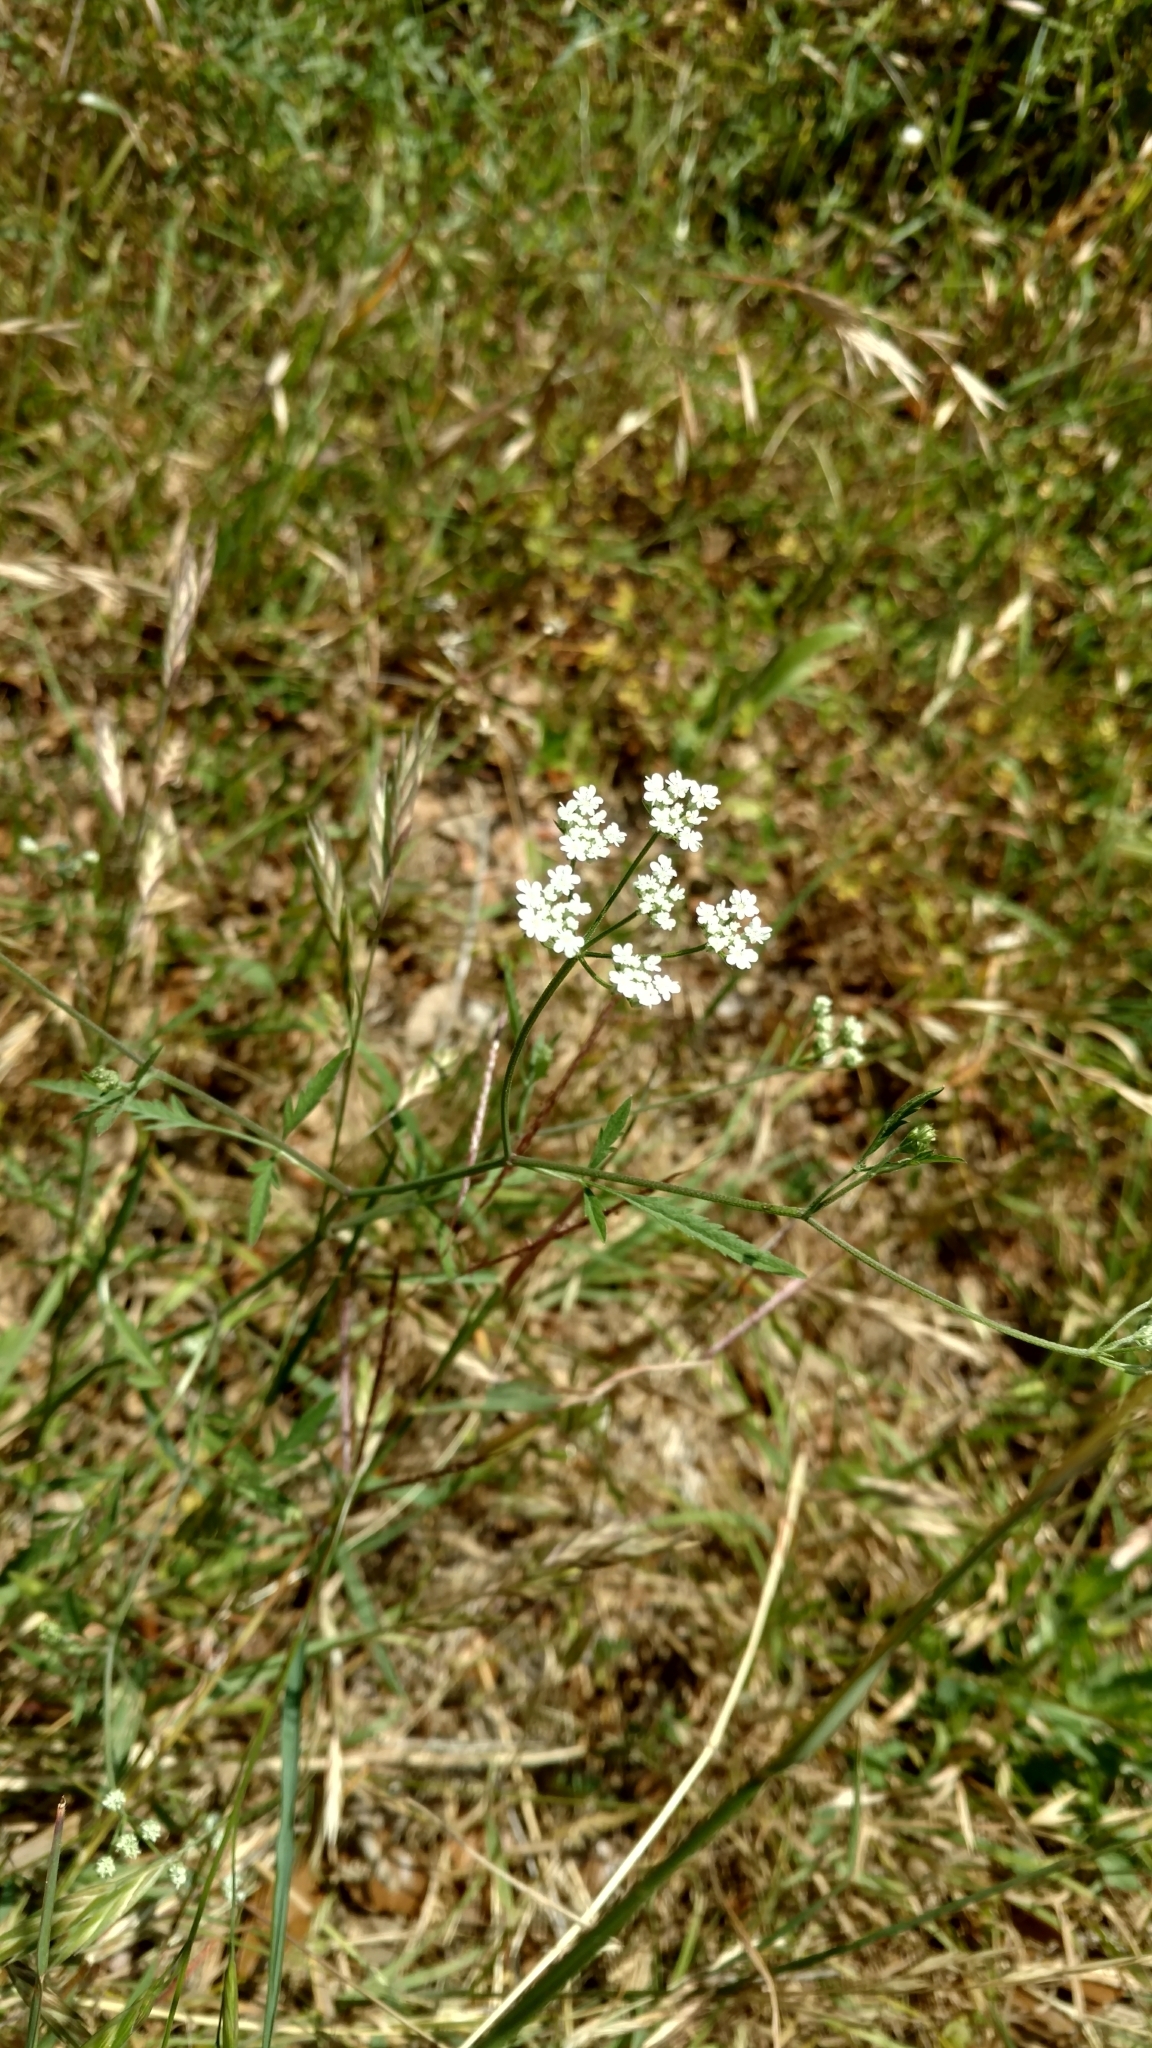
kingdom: Plantae
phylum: Tracheophyta
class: Magnoliopsida
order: Apiales
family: Apiaceae
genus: Torilis
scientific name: Torilis arvensis
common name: Spreading hedge-parsley
